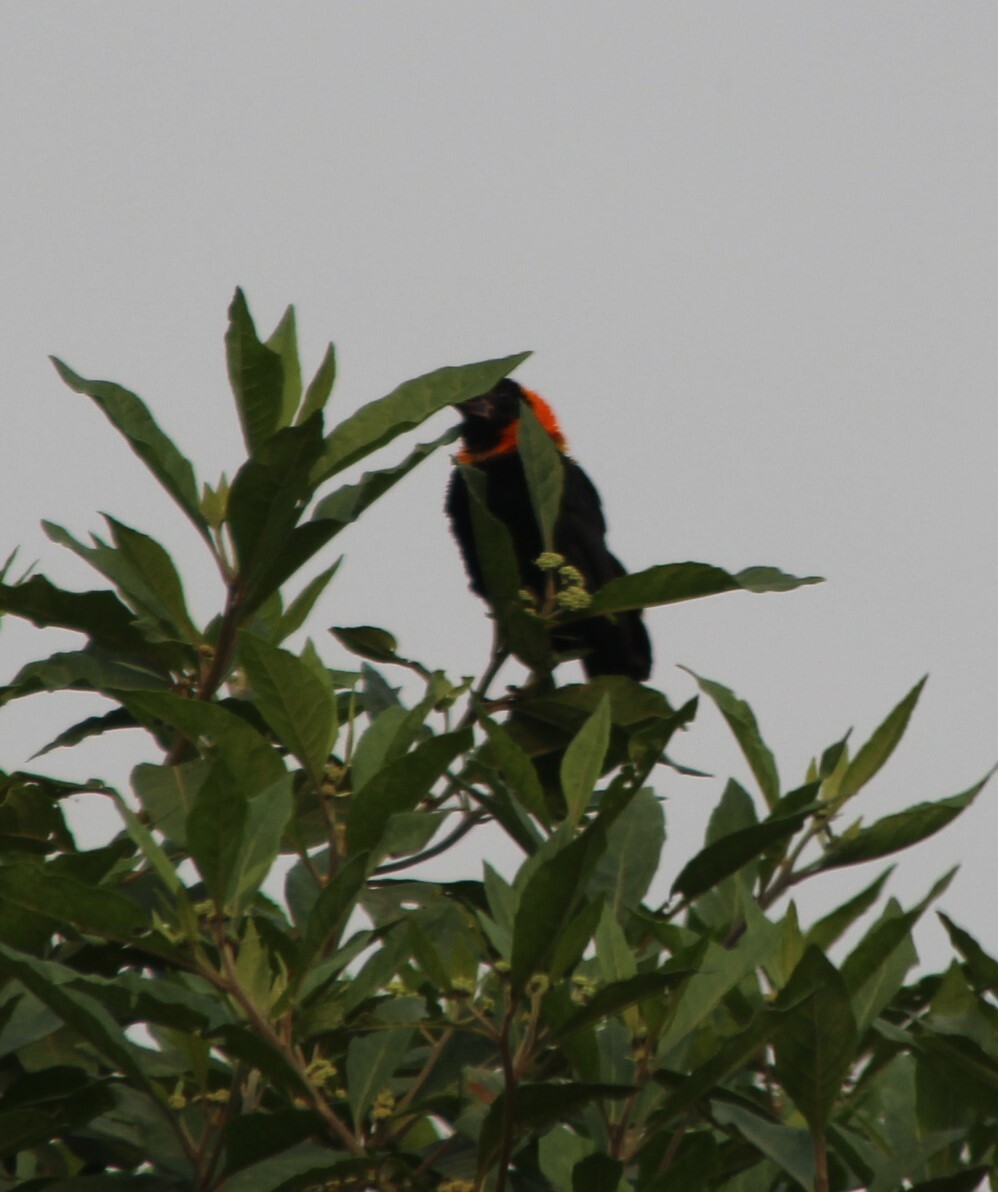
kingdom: Animalia
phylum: Chordata
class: Aves
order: Passeriformes
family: Ploceidae
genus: Euplectes
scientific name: Euplectes gierowii
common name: Black bishop
